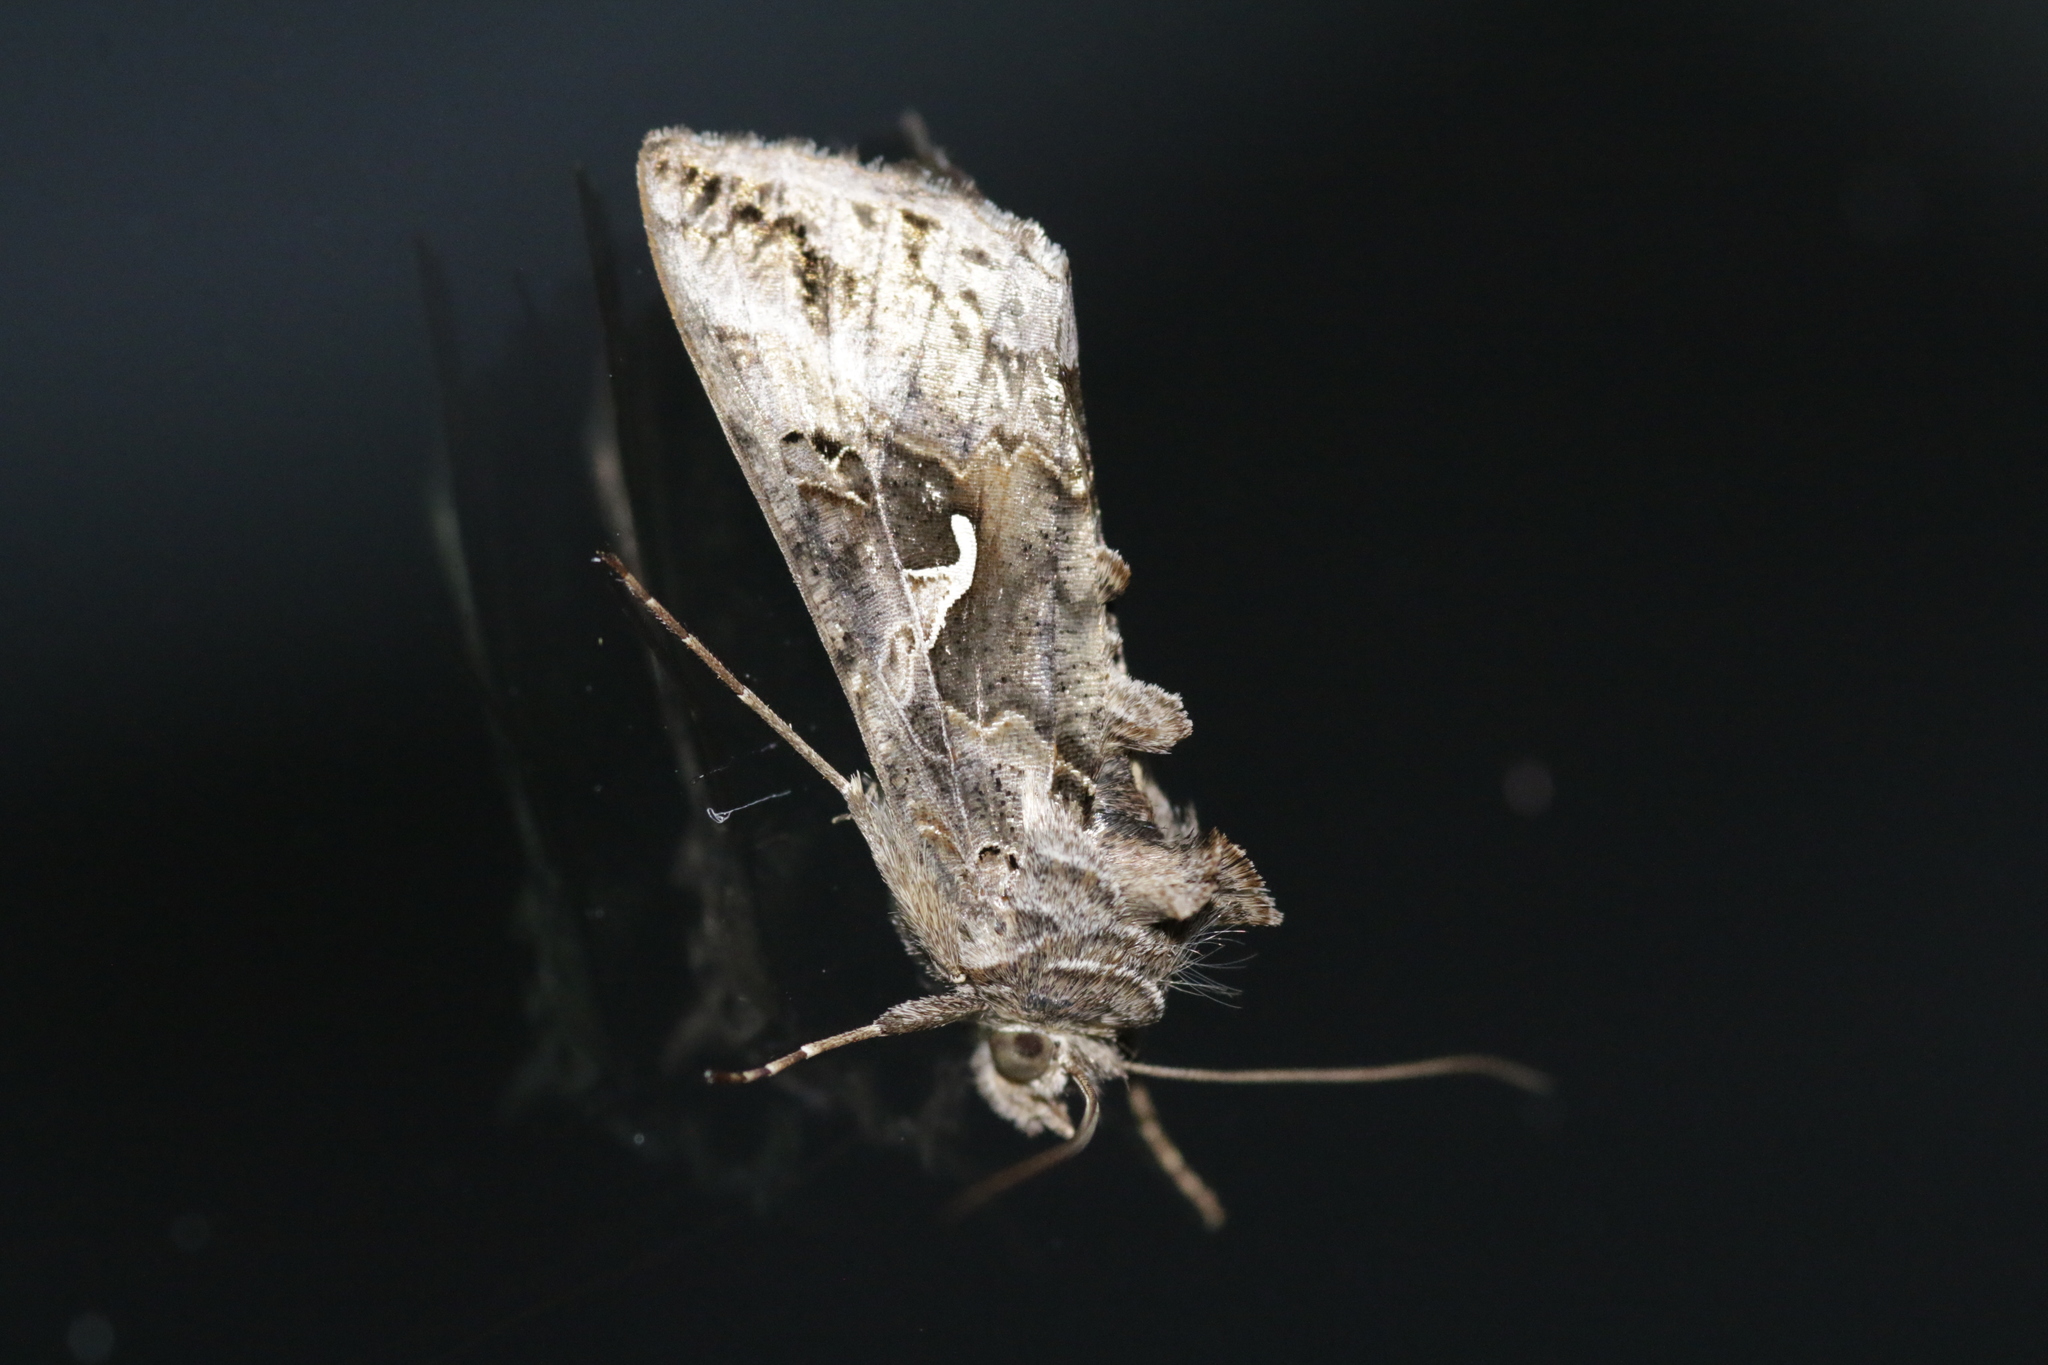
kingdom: Animalia
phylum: Arthropoda
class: Insecta
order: Lepidoptera
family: Noctuidae
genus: Autographa
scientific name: Autographa gamma
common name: Silver y
